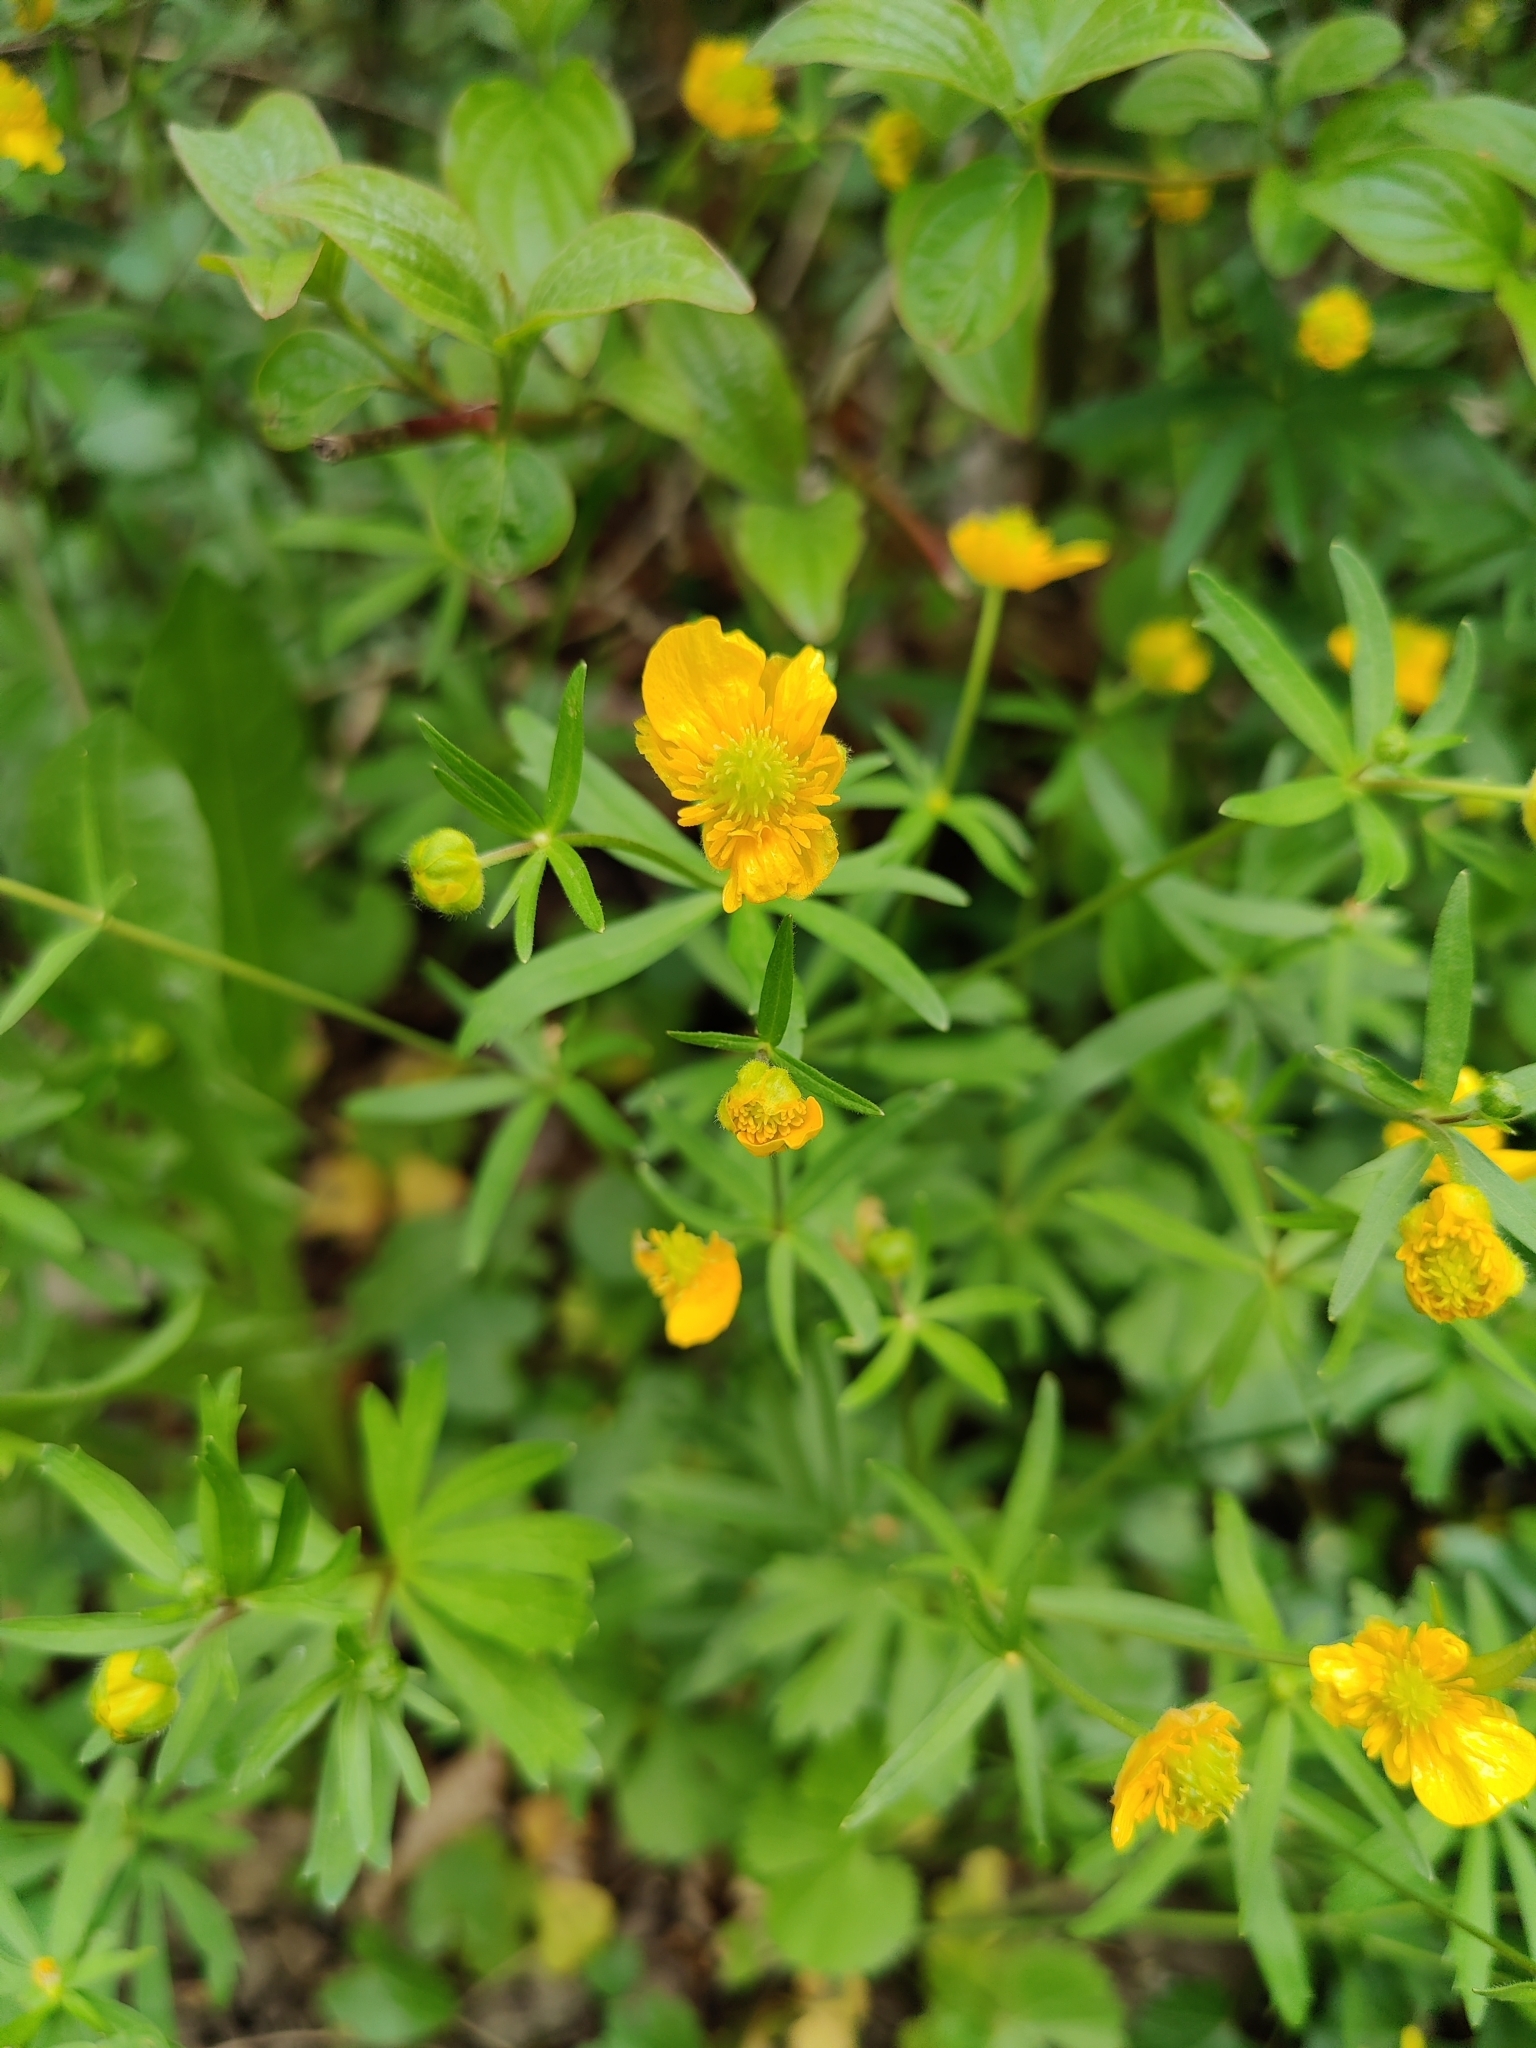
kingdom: Plantae
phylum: Tracheophyta
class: Magnoliopsida
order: Ranunculales
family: Ranunculaceae
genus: Ranunculus
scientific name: Ranunculus auricomus
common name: Goldilocks buttercup
